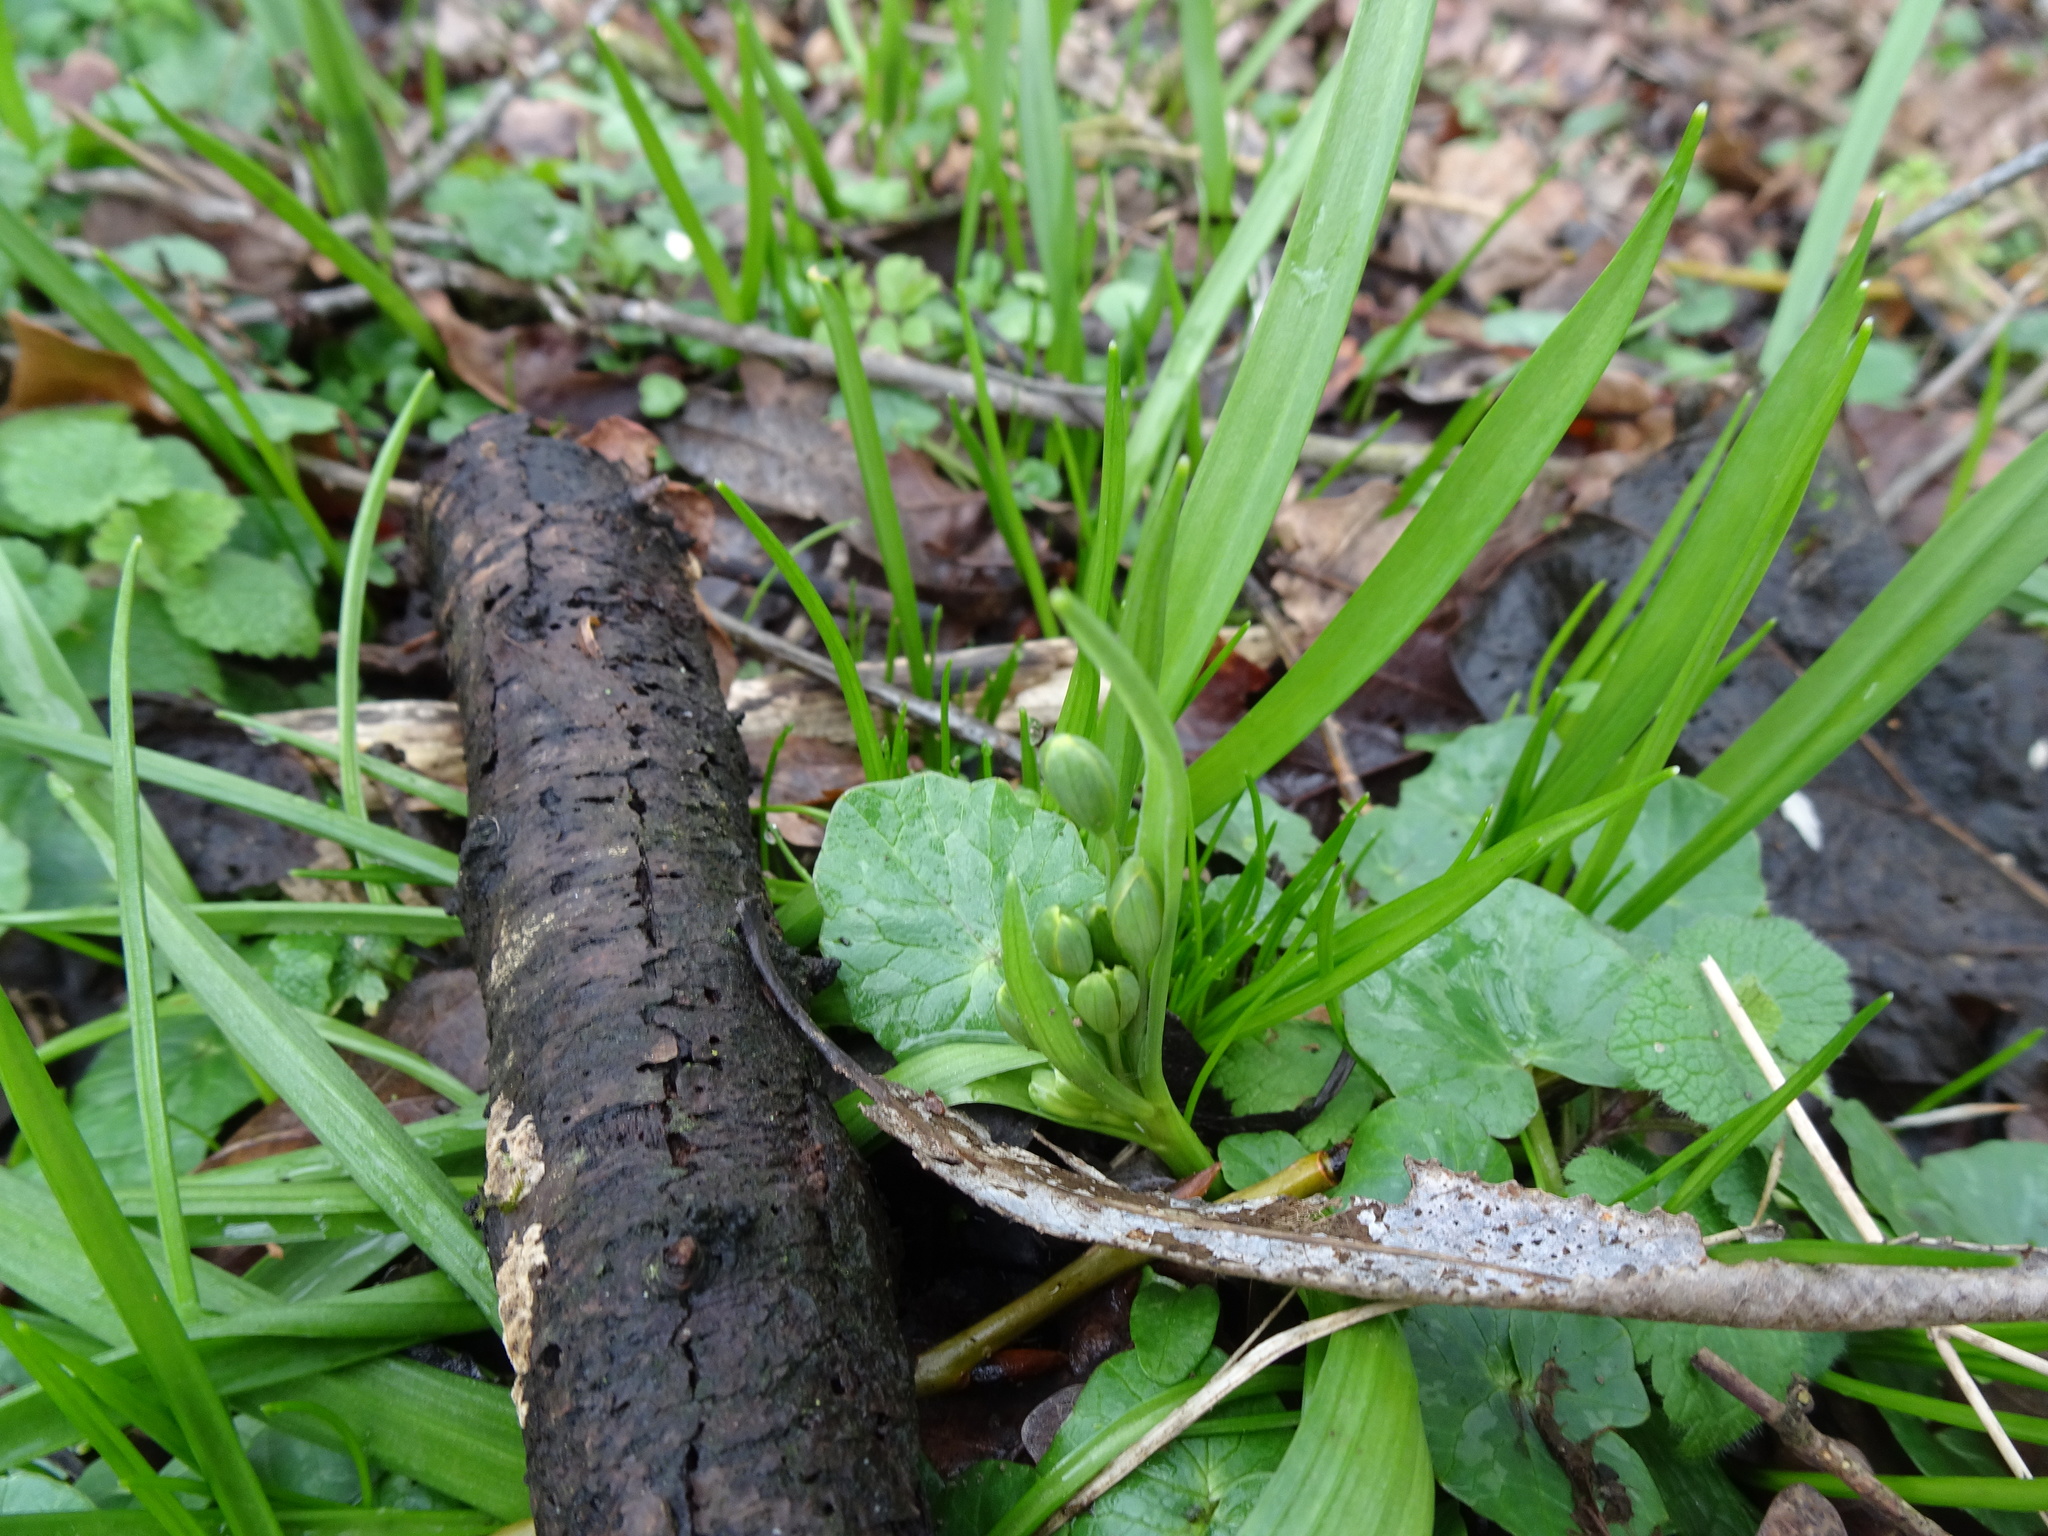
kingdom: Plantae
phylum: Tracheophyta
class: Liliopsida
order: Liliales
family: Liliaceae
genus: Gagea
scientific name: Gagea lutea
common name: Yellow star-of-bethlehem
